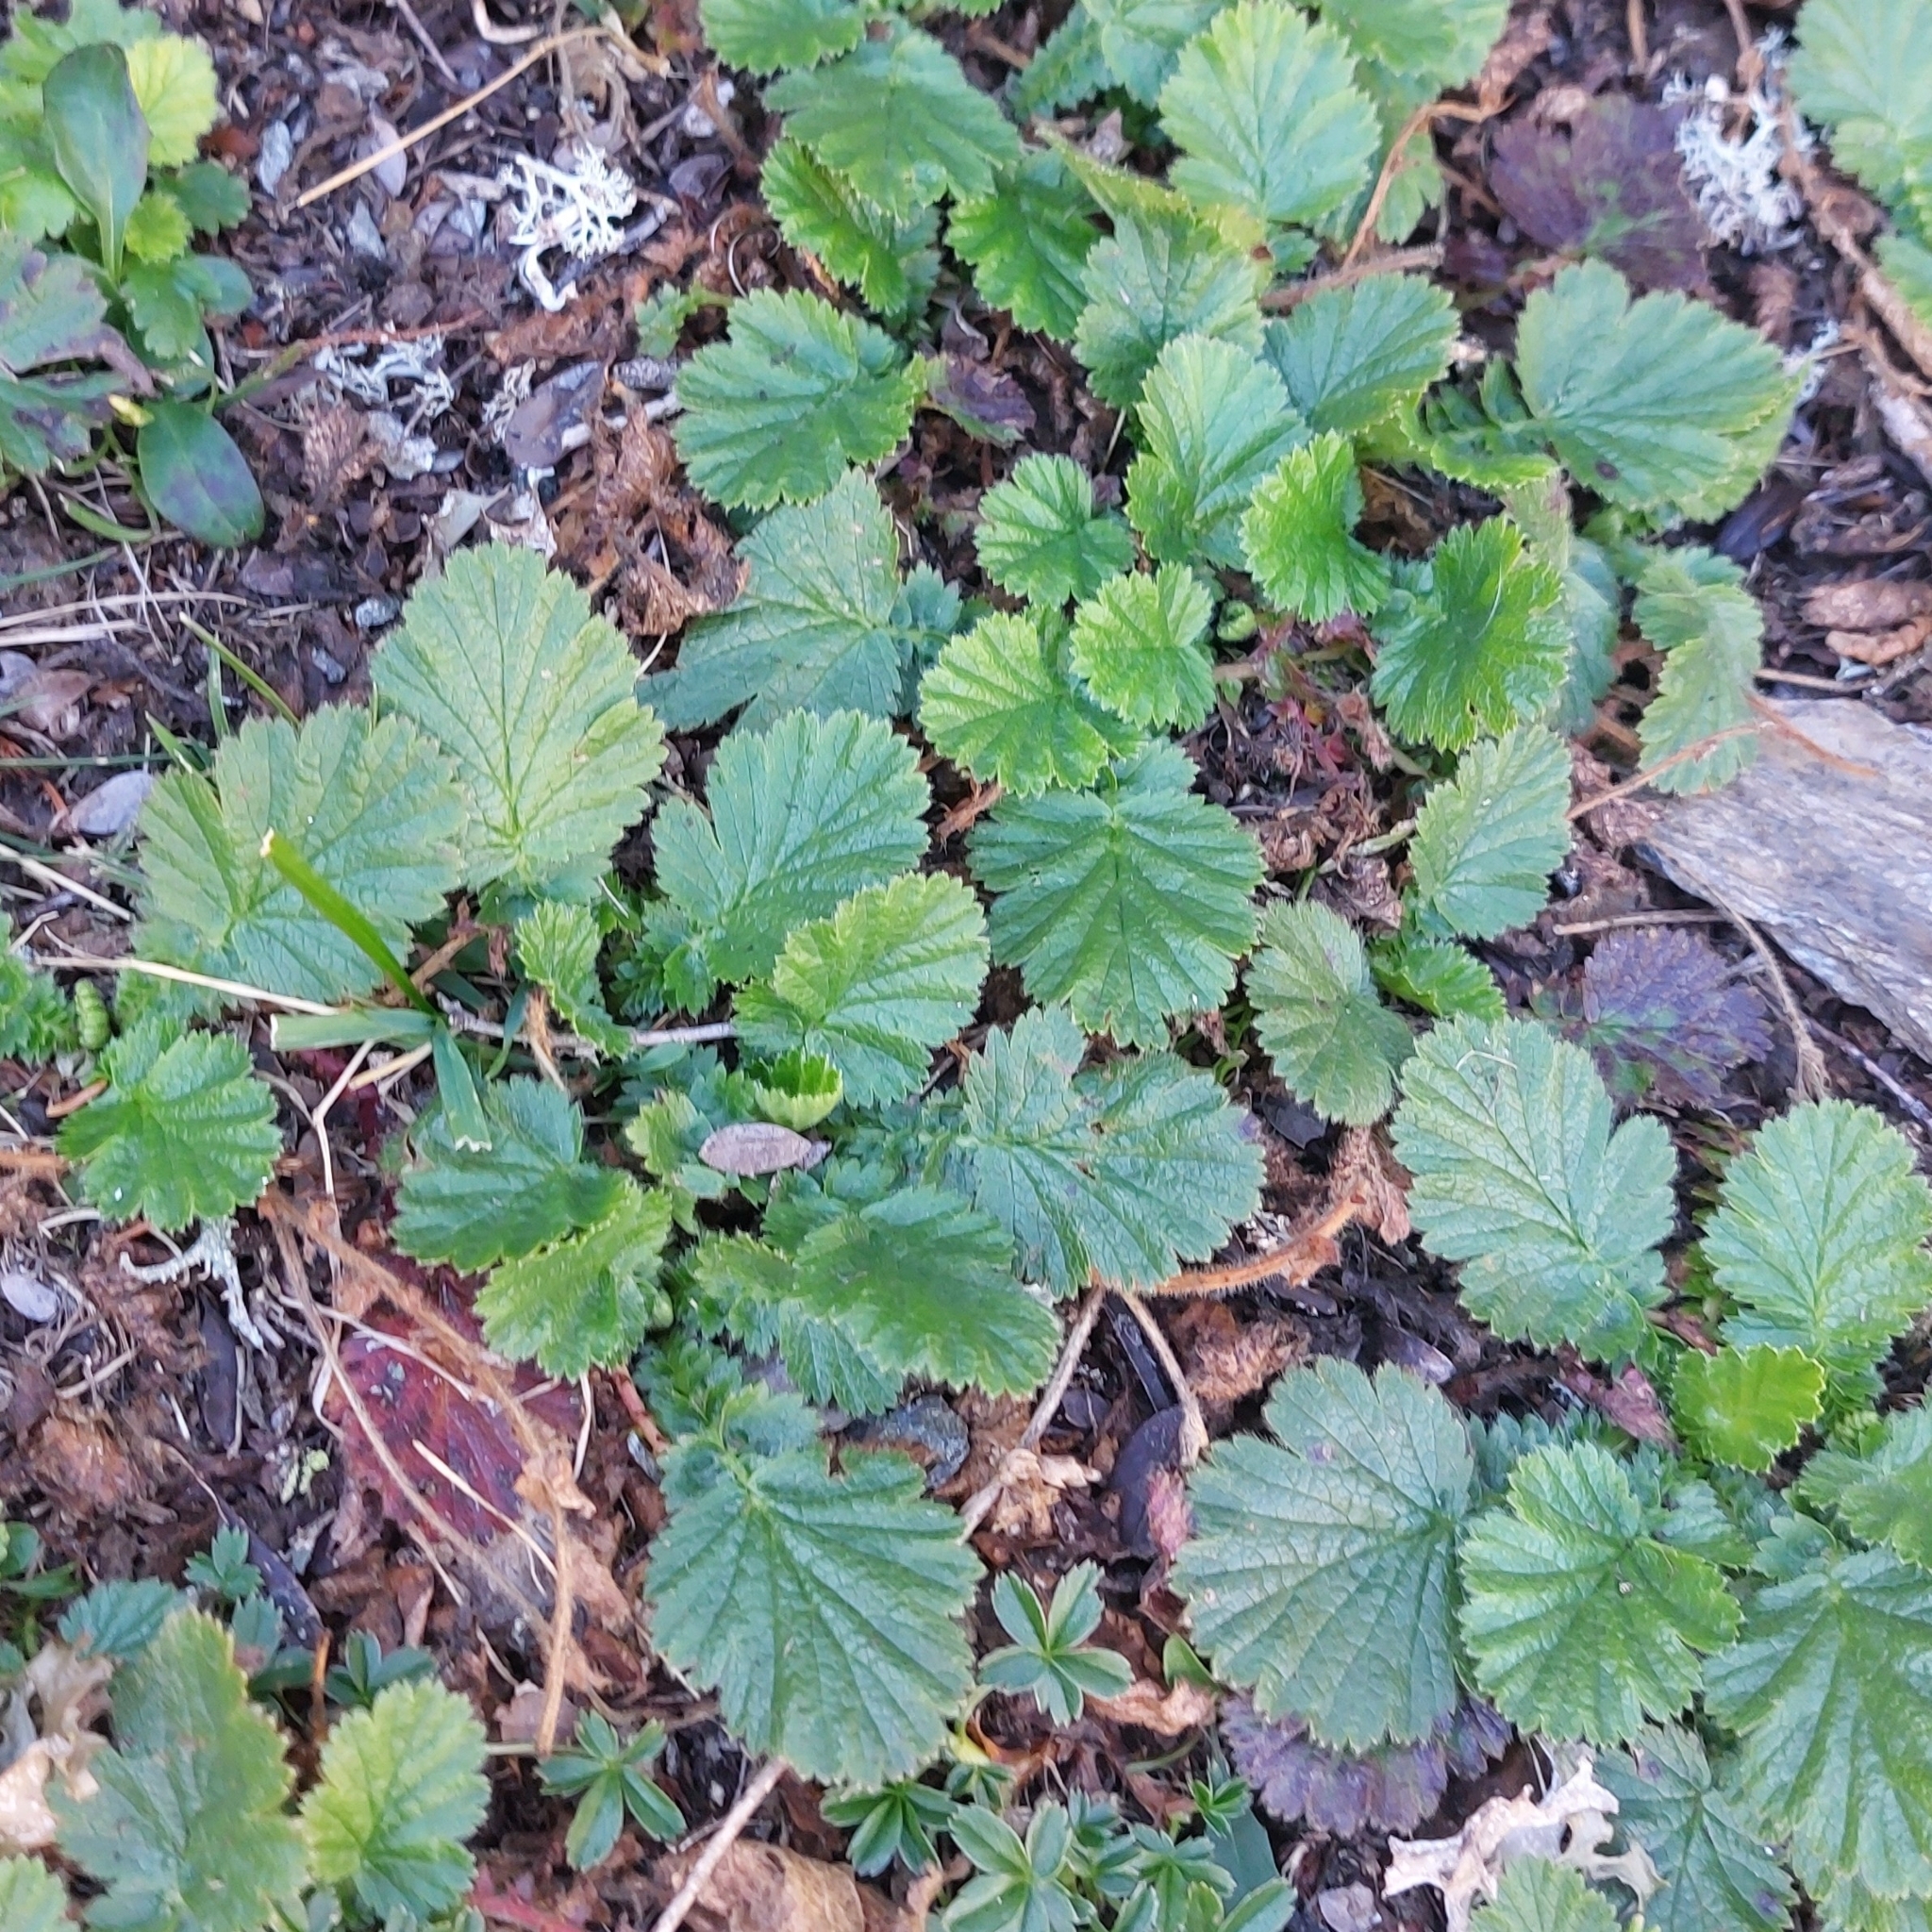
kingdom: Plantae
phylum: Tracheophyta
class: Magnoliopsida
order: Rosales
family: Rosaceae
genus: Geum
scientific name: Geum montanum
